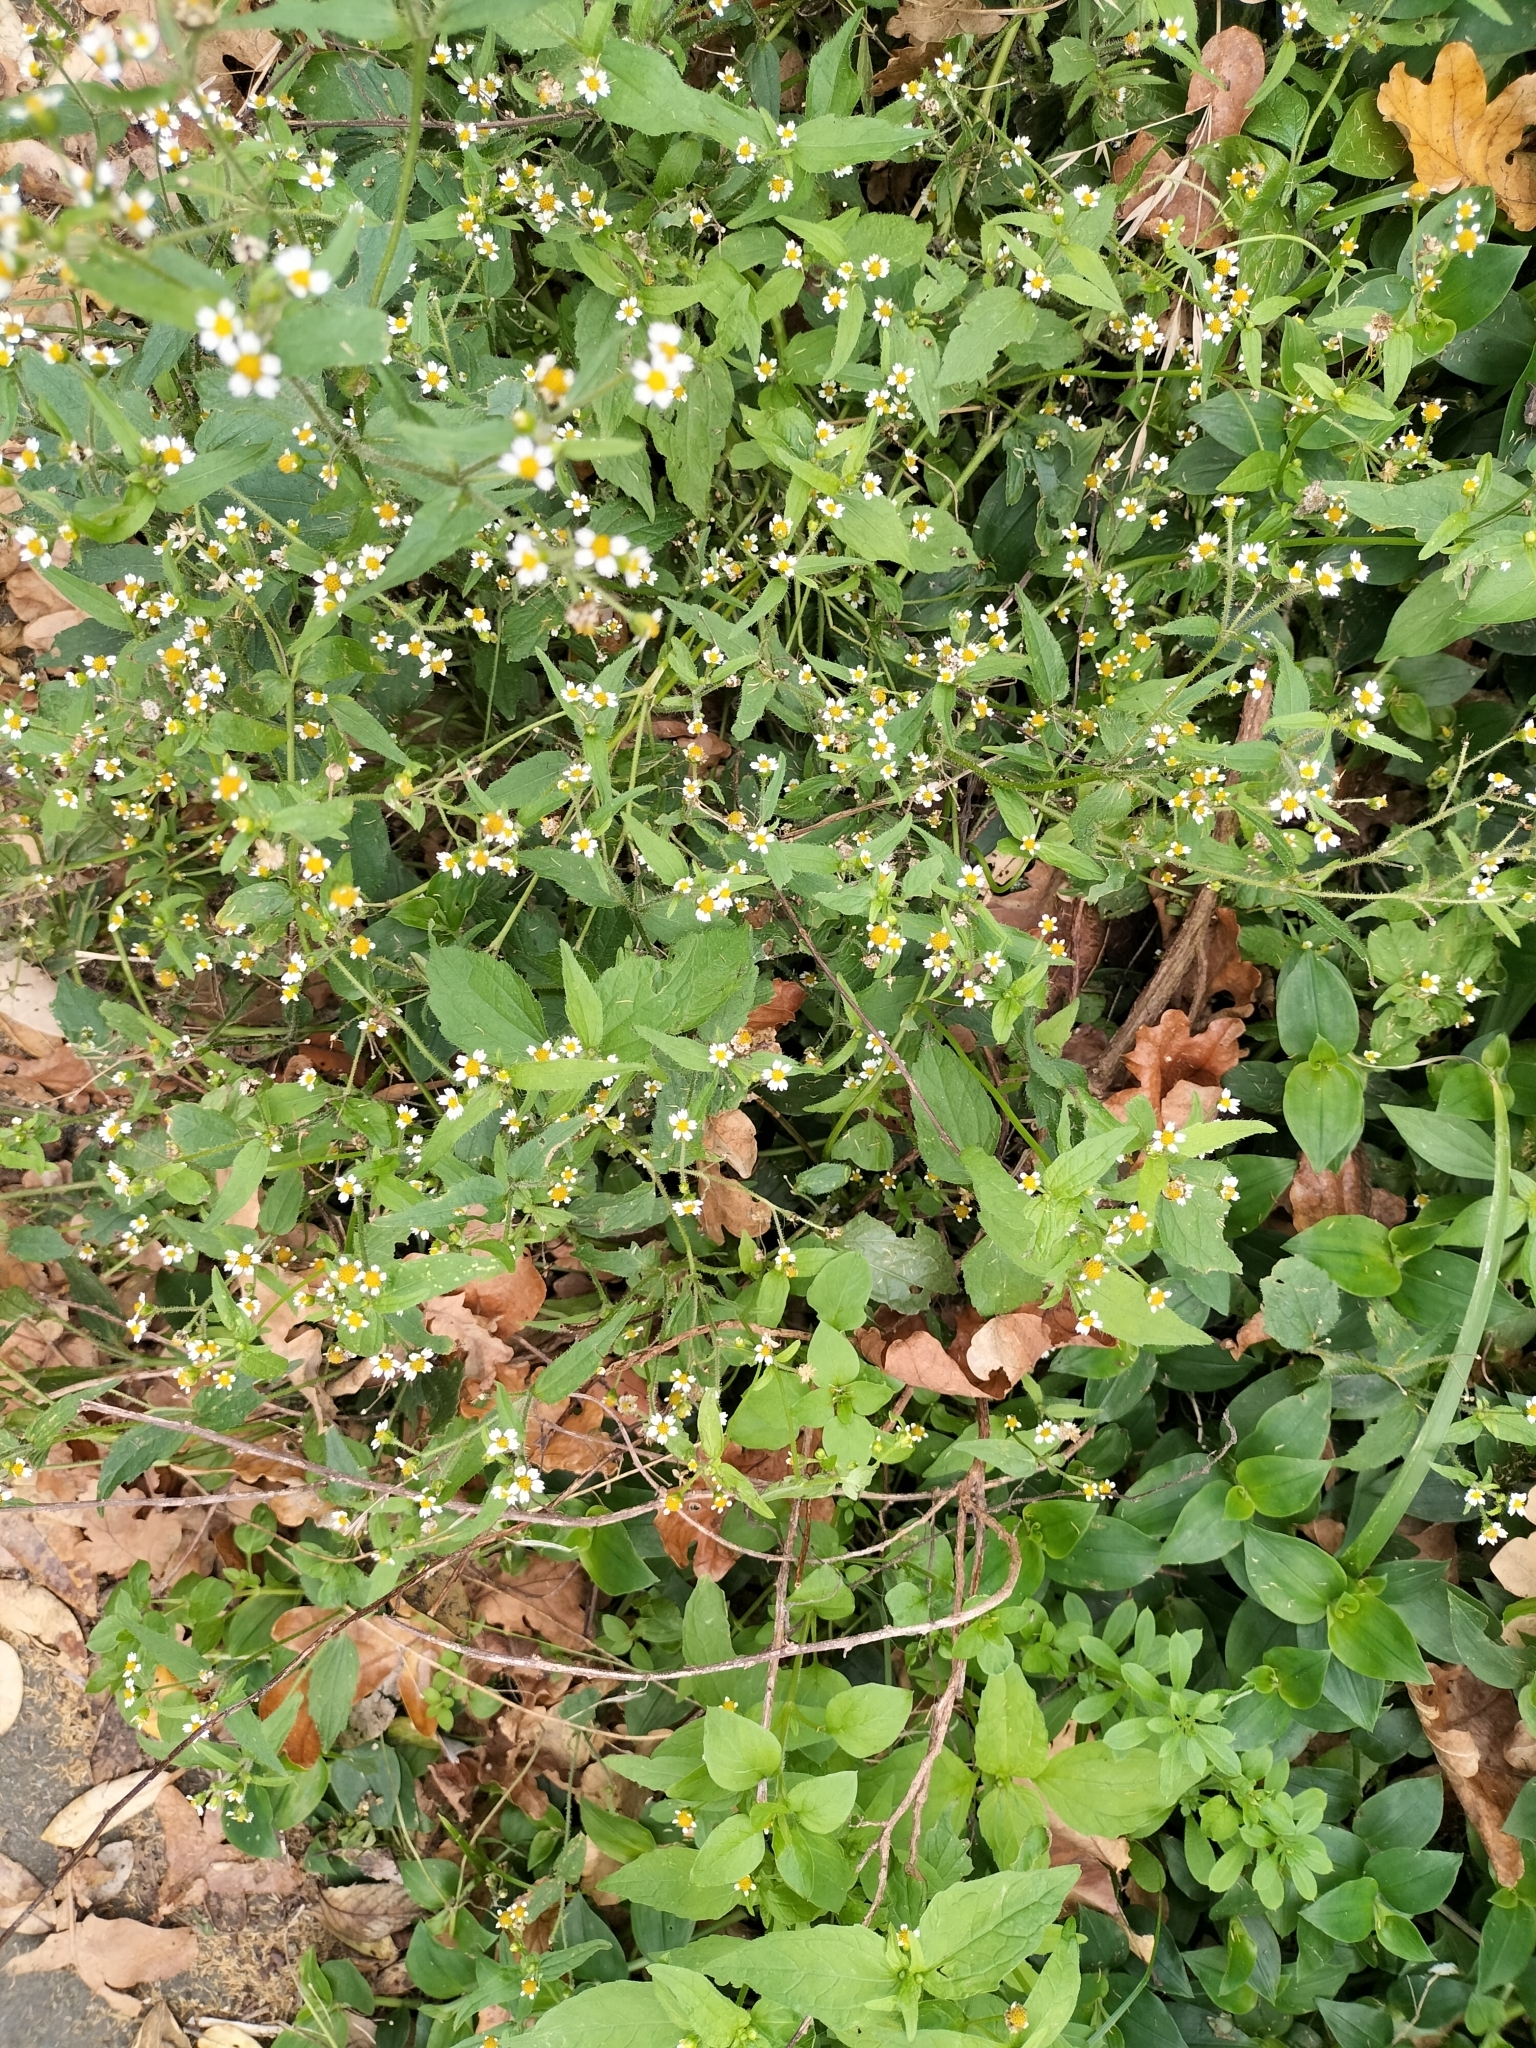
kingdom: Plantae
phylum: Tracheophyta
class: Magnoliopsida
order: Asterales
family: Asteraceae
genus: Galinsoga
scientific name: Galinsoga quadriradiata
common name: Shaggy soldier
